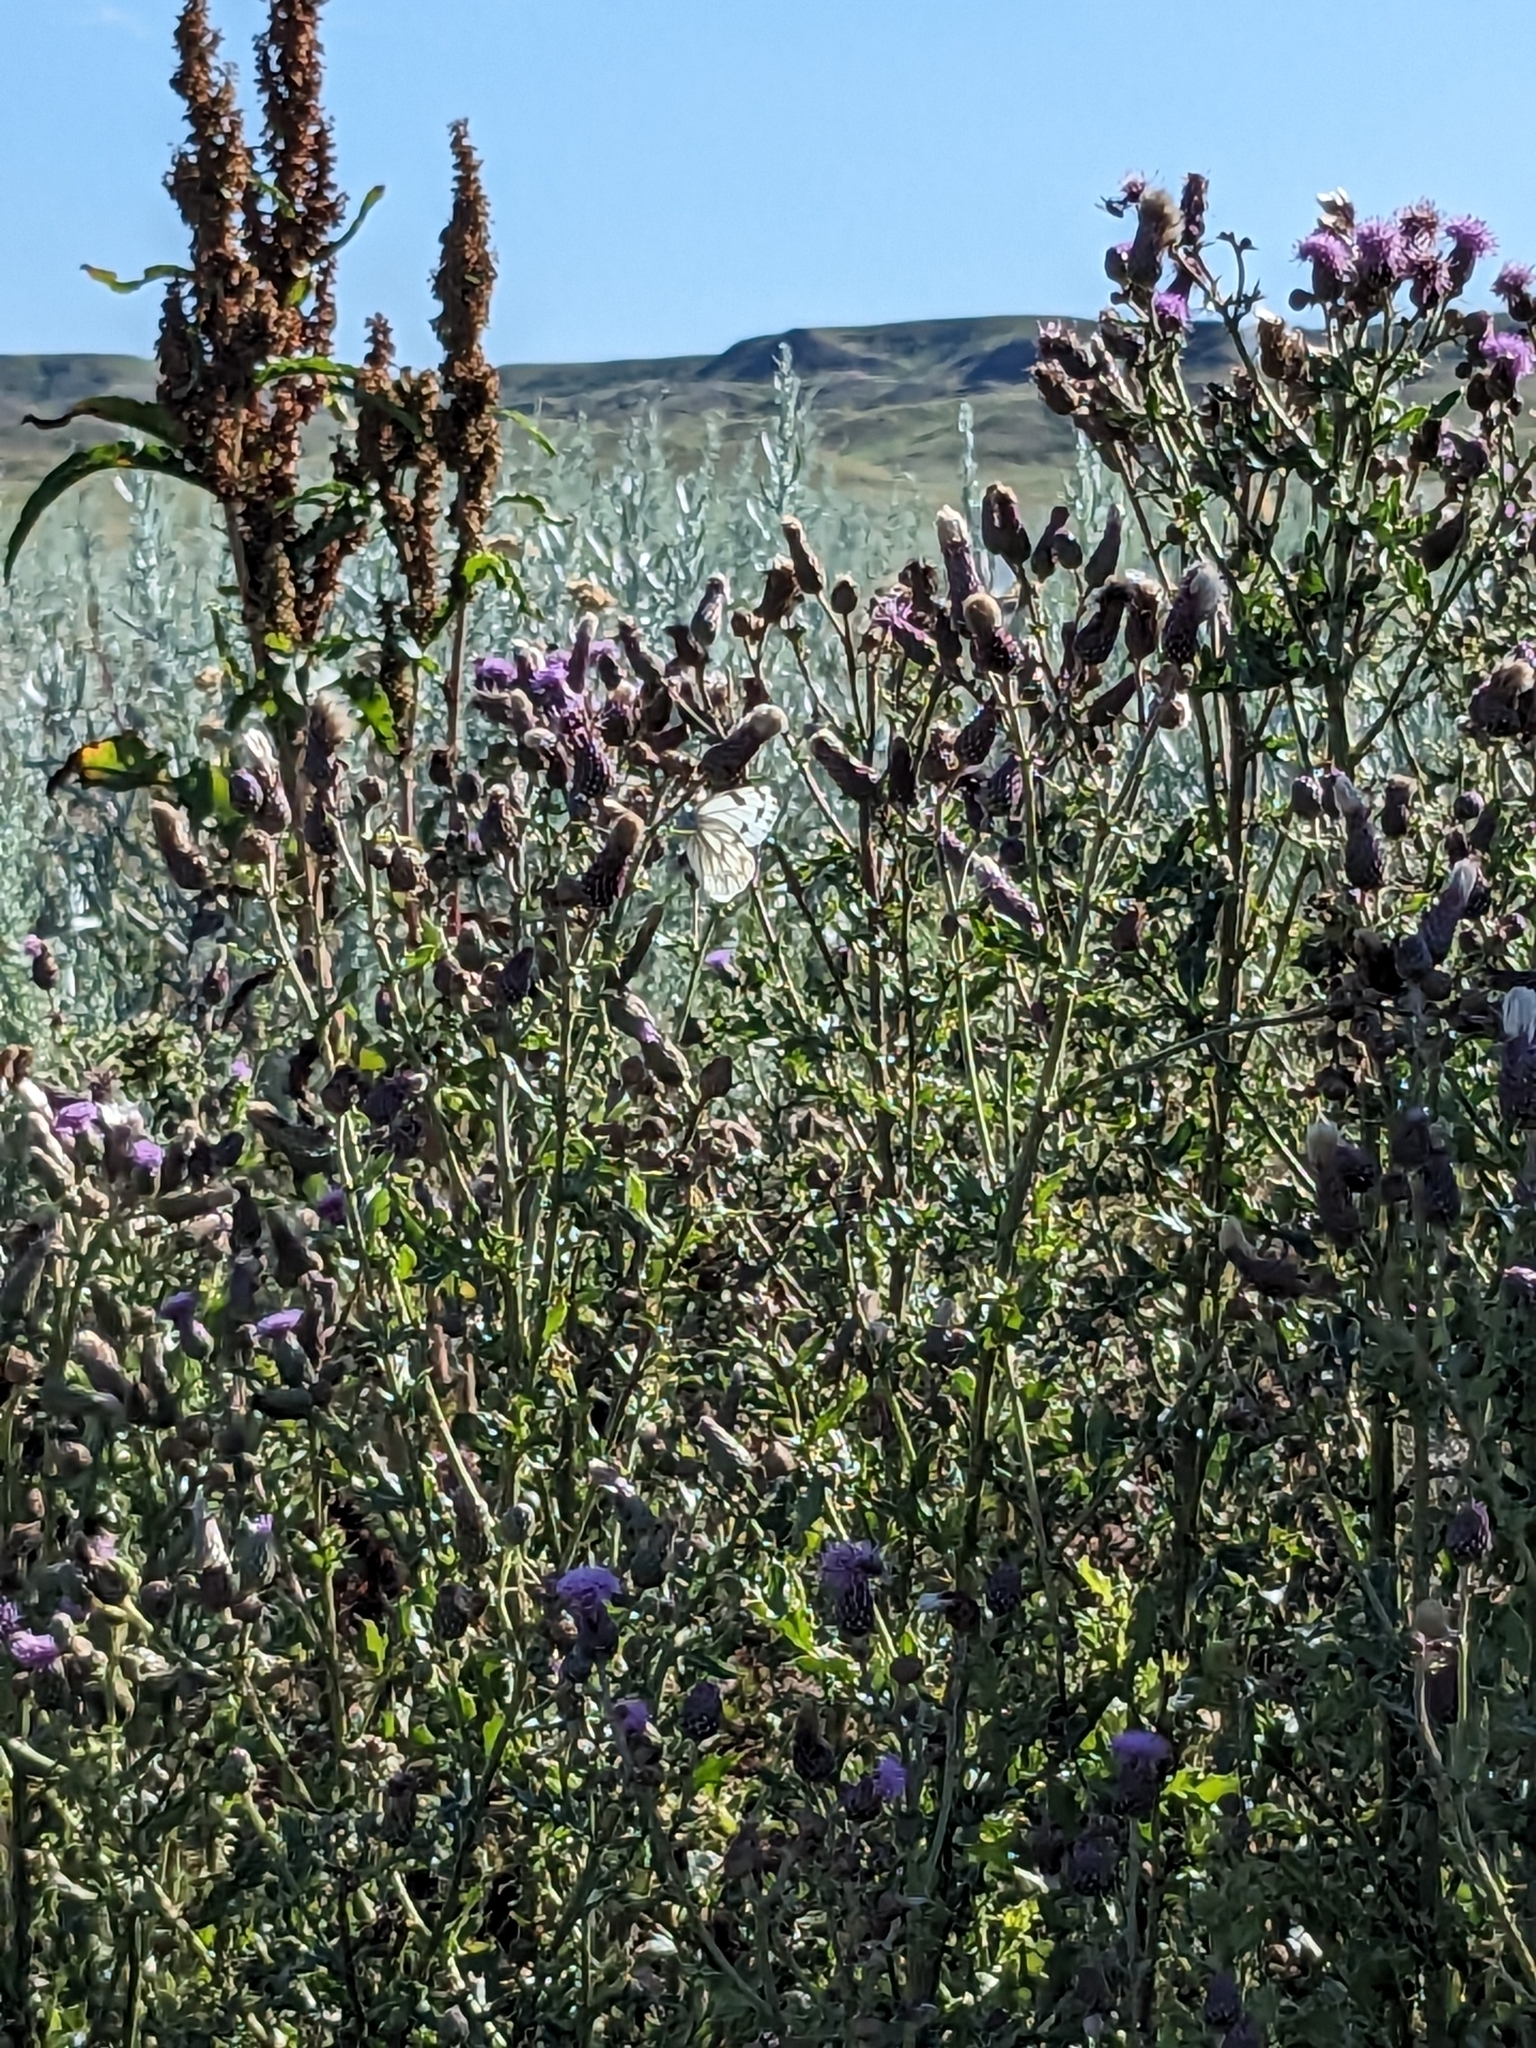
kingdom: Animalia
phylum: Arthropoda
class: Insecta
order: Lepidoptera
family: Pieridae
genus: Pontia
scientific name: Pontia occidentalis
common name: Western white
